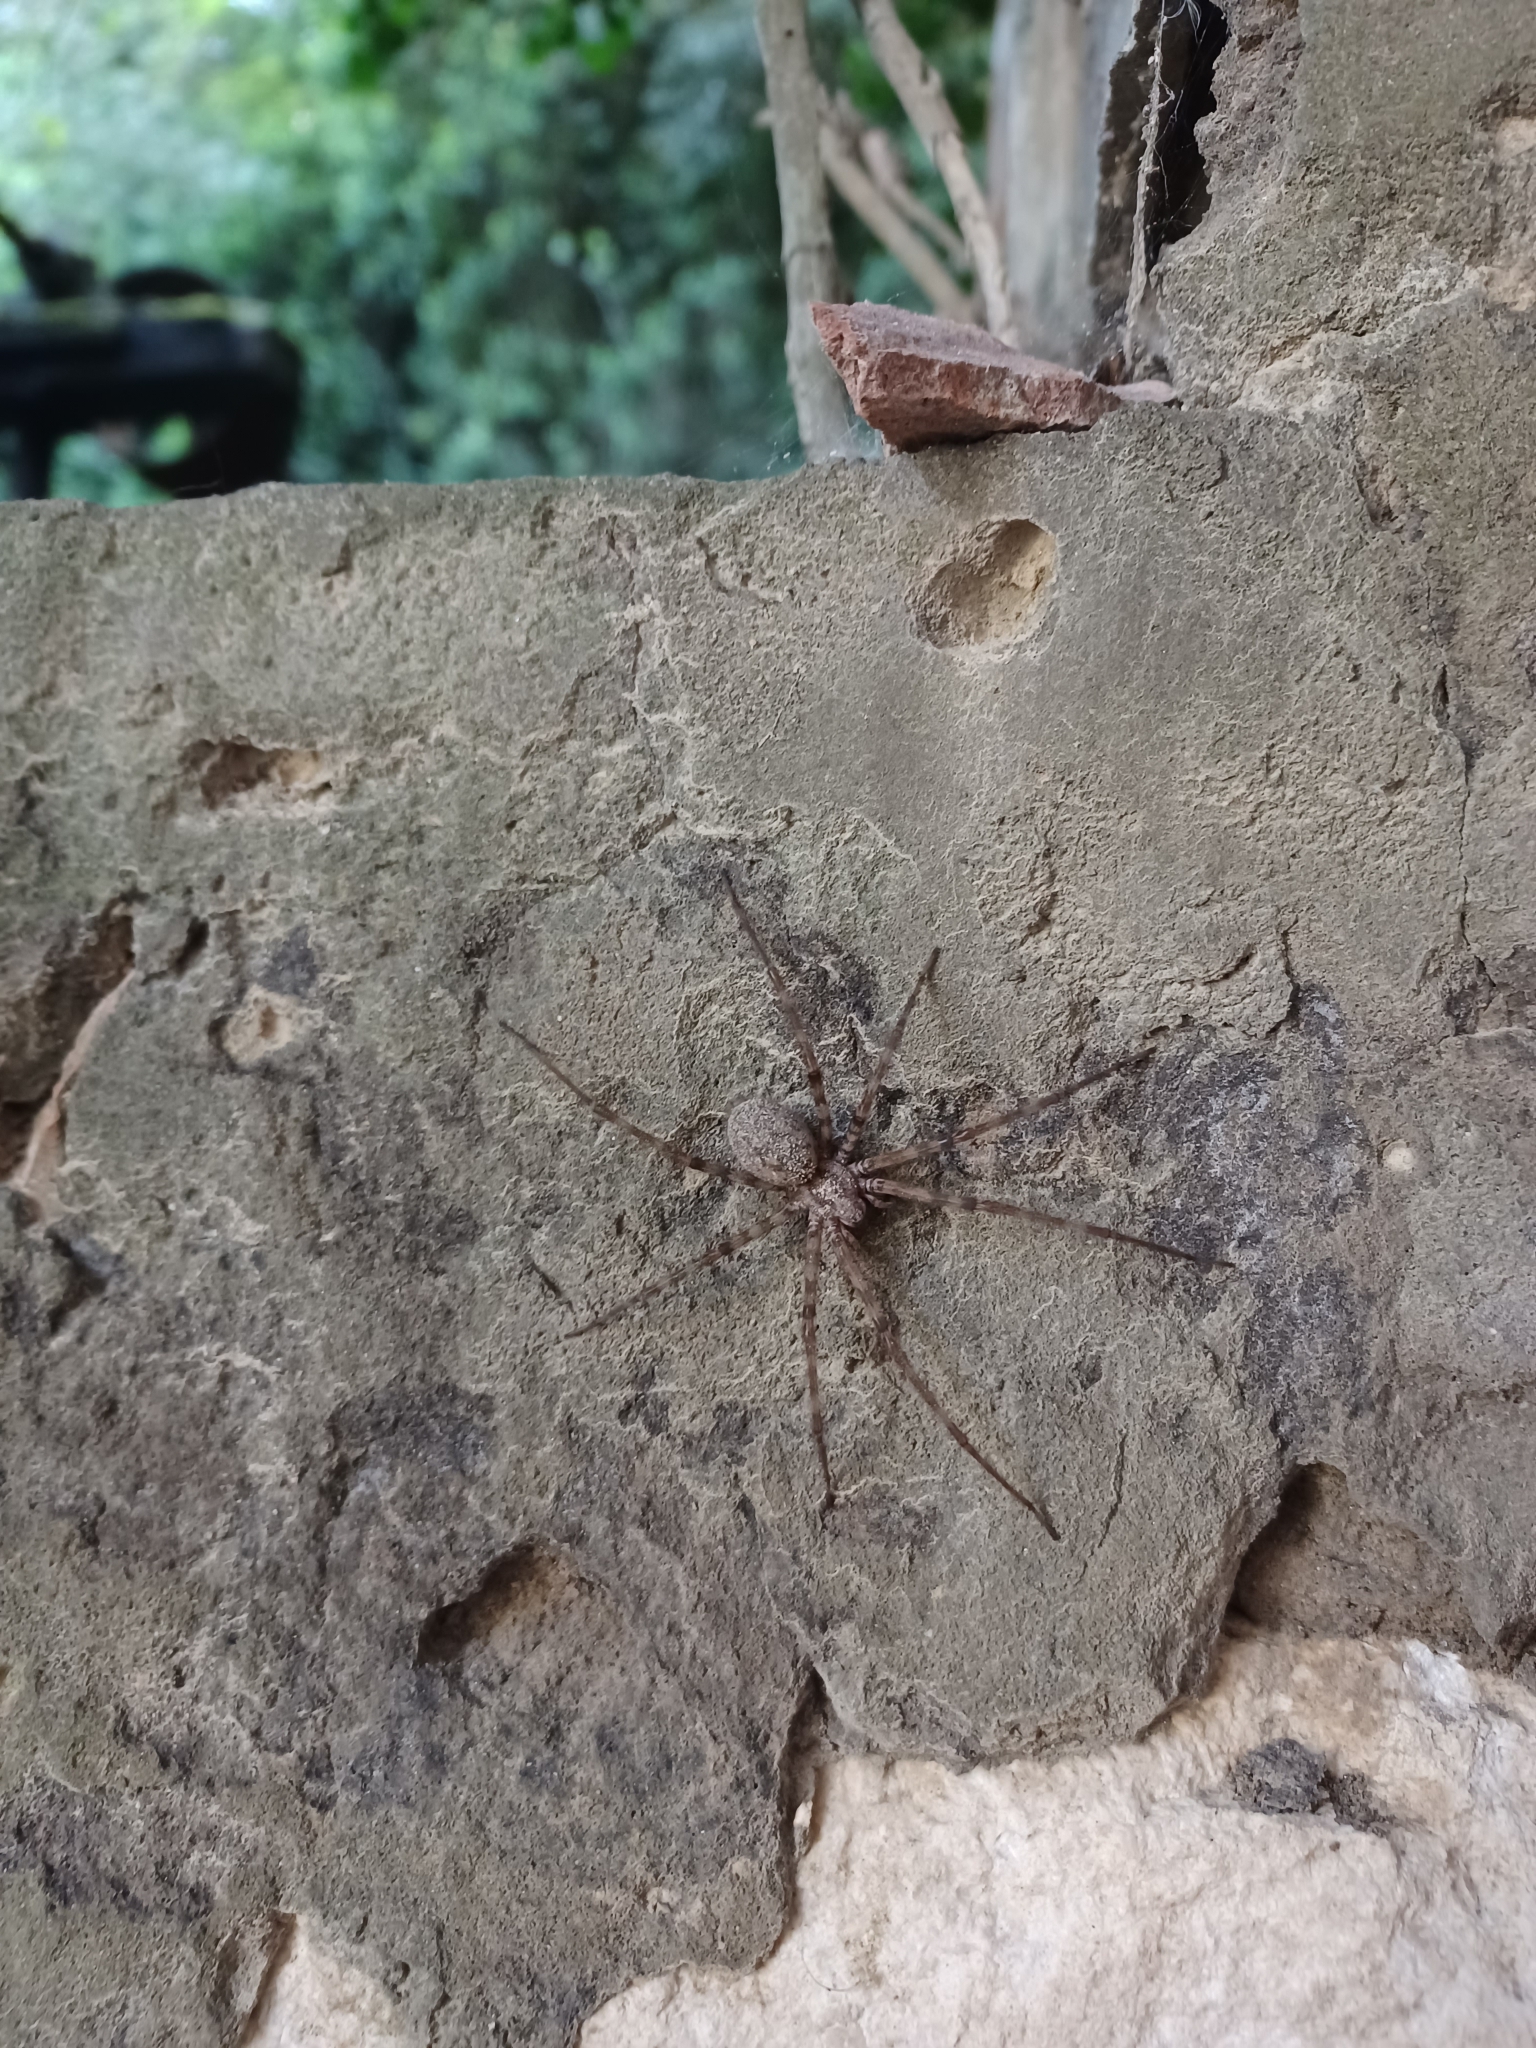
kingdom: Animalia
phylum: Arthropoda
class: Arachnida
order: Araneae
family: Agelenidae
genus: Tegenaria
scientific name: Tegenaria parietina
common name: Cardinal spider
